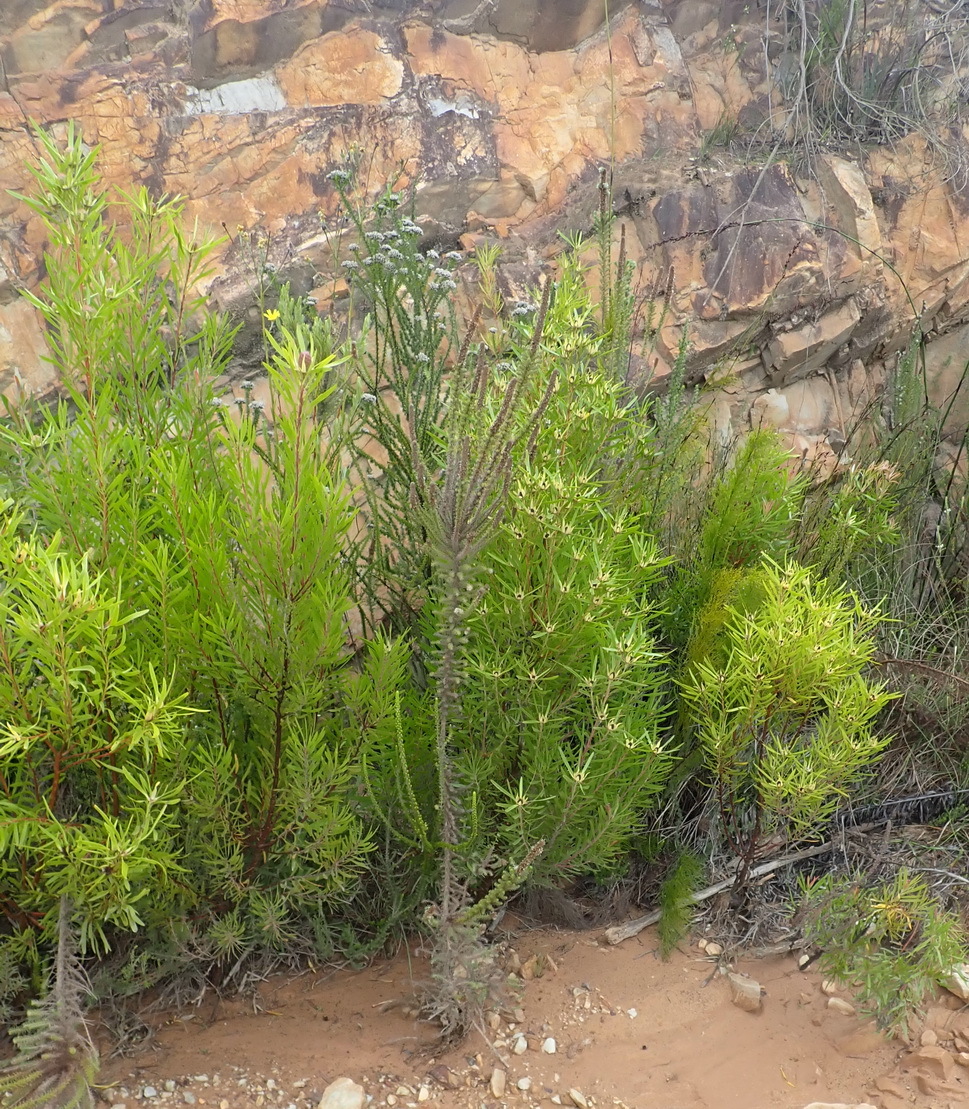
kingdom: Plantae
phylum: Tracheophyta
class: Magnoliopsida
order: Proteales
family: Proteaceae
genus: Leucadendron
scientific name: Leucadendron eucalyptifolium
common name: Gum-leaved conebush
